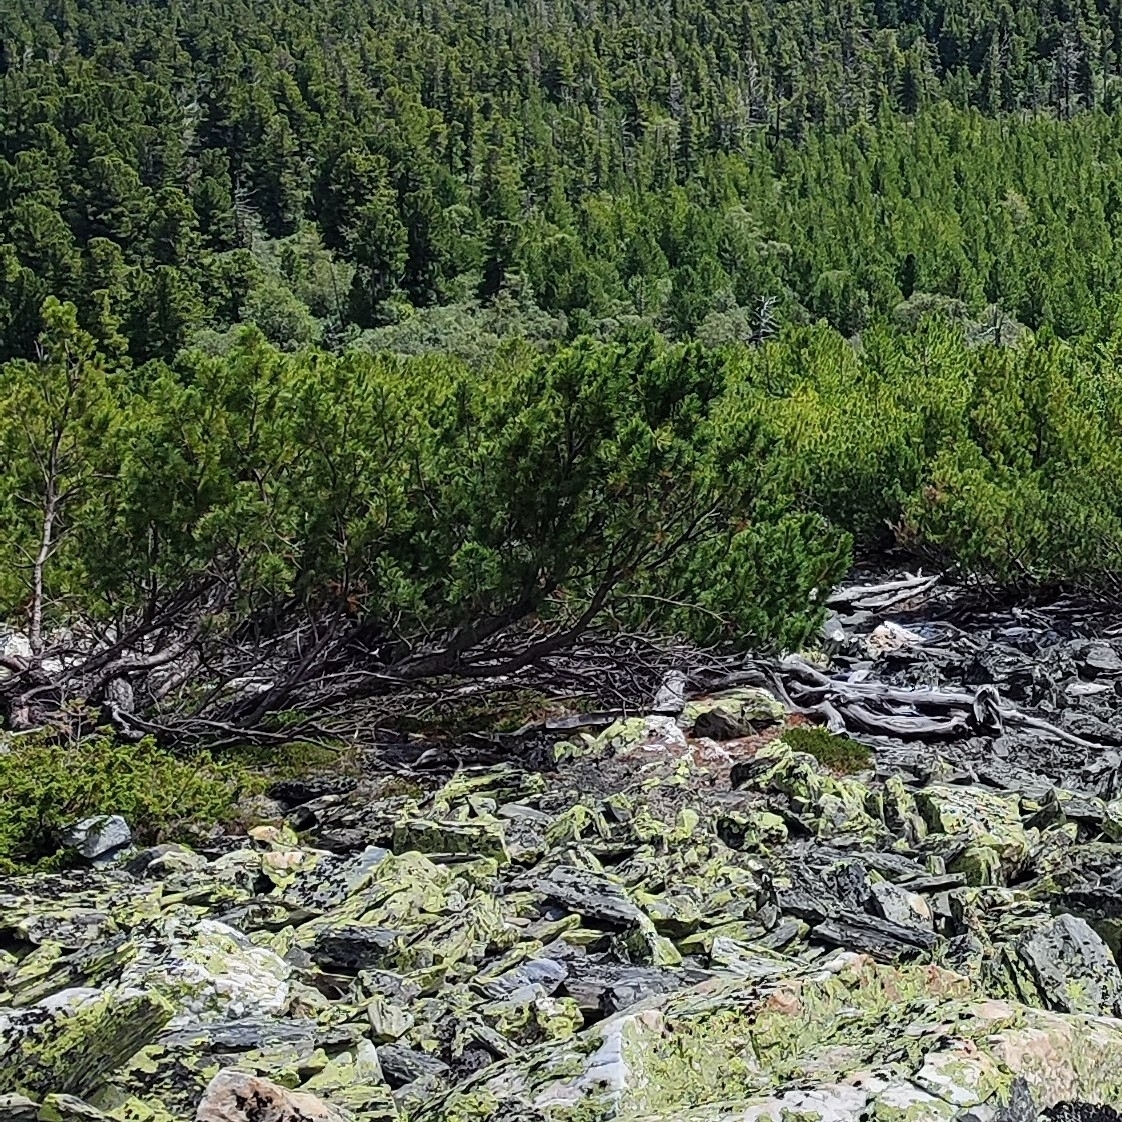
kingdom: Plantae
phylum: Tracheophyta
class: Pinopsida
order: Pinales
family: Pinaceae
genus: Pinus
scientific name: Pinus pumila
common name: Dwarf siberian pine
